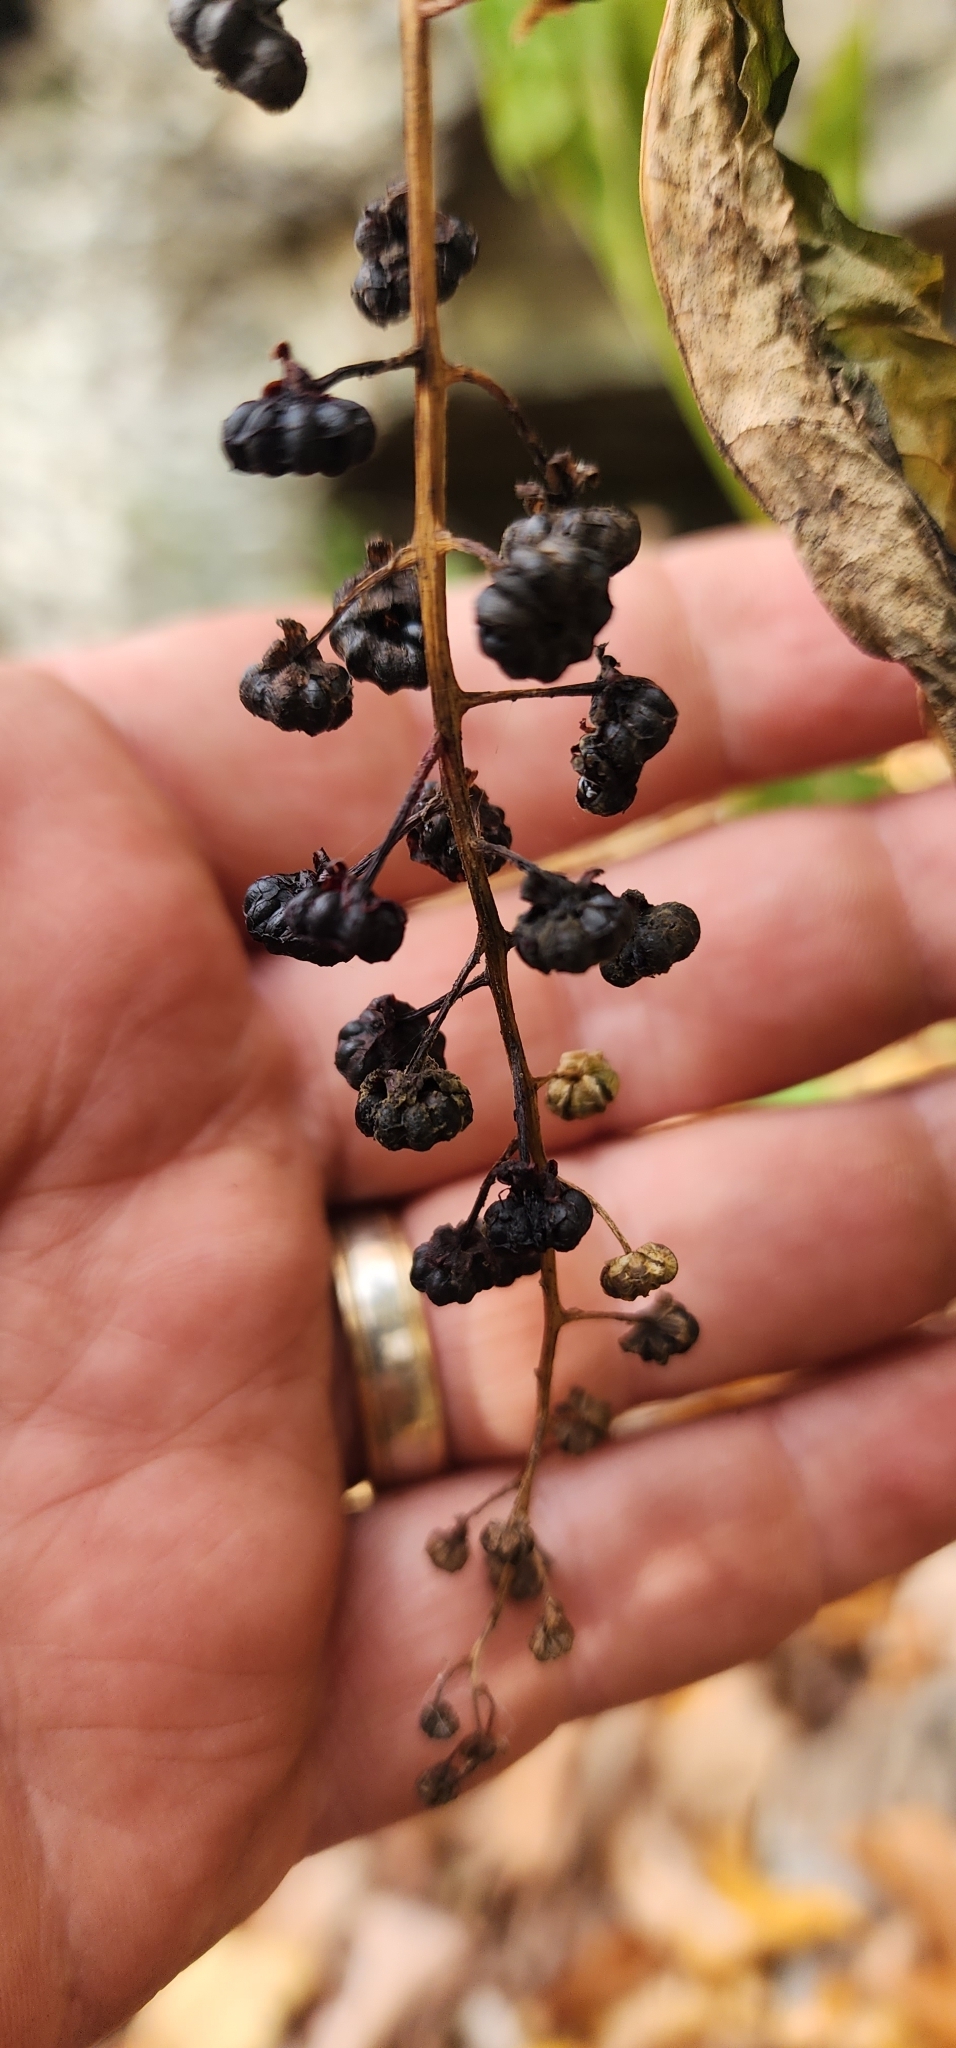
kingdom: Plantae
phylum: Tracheophyta
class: Magnoliopsida
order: Caryophyllales
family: Phytolaccaceae
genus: Phytolacca
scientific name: Phytolacca americana
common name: American pokeweed
